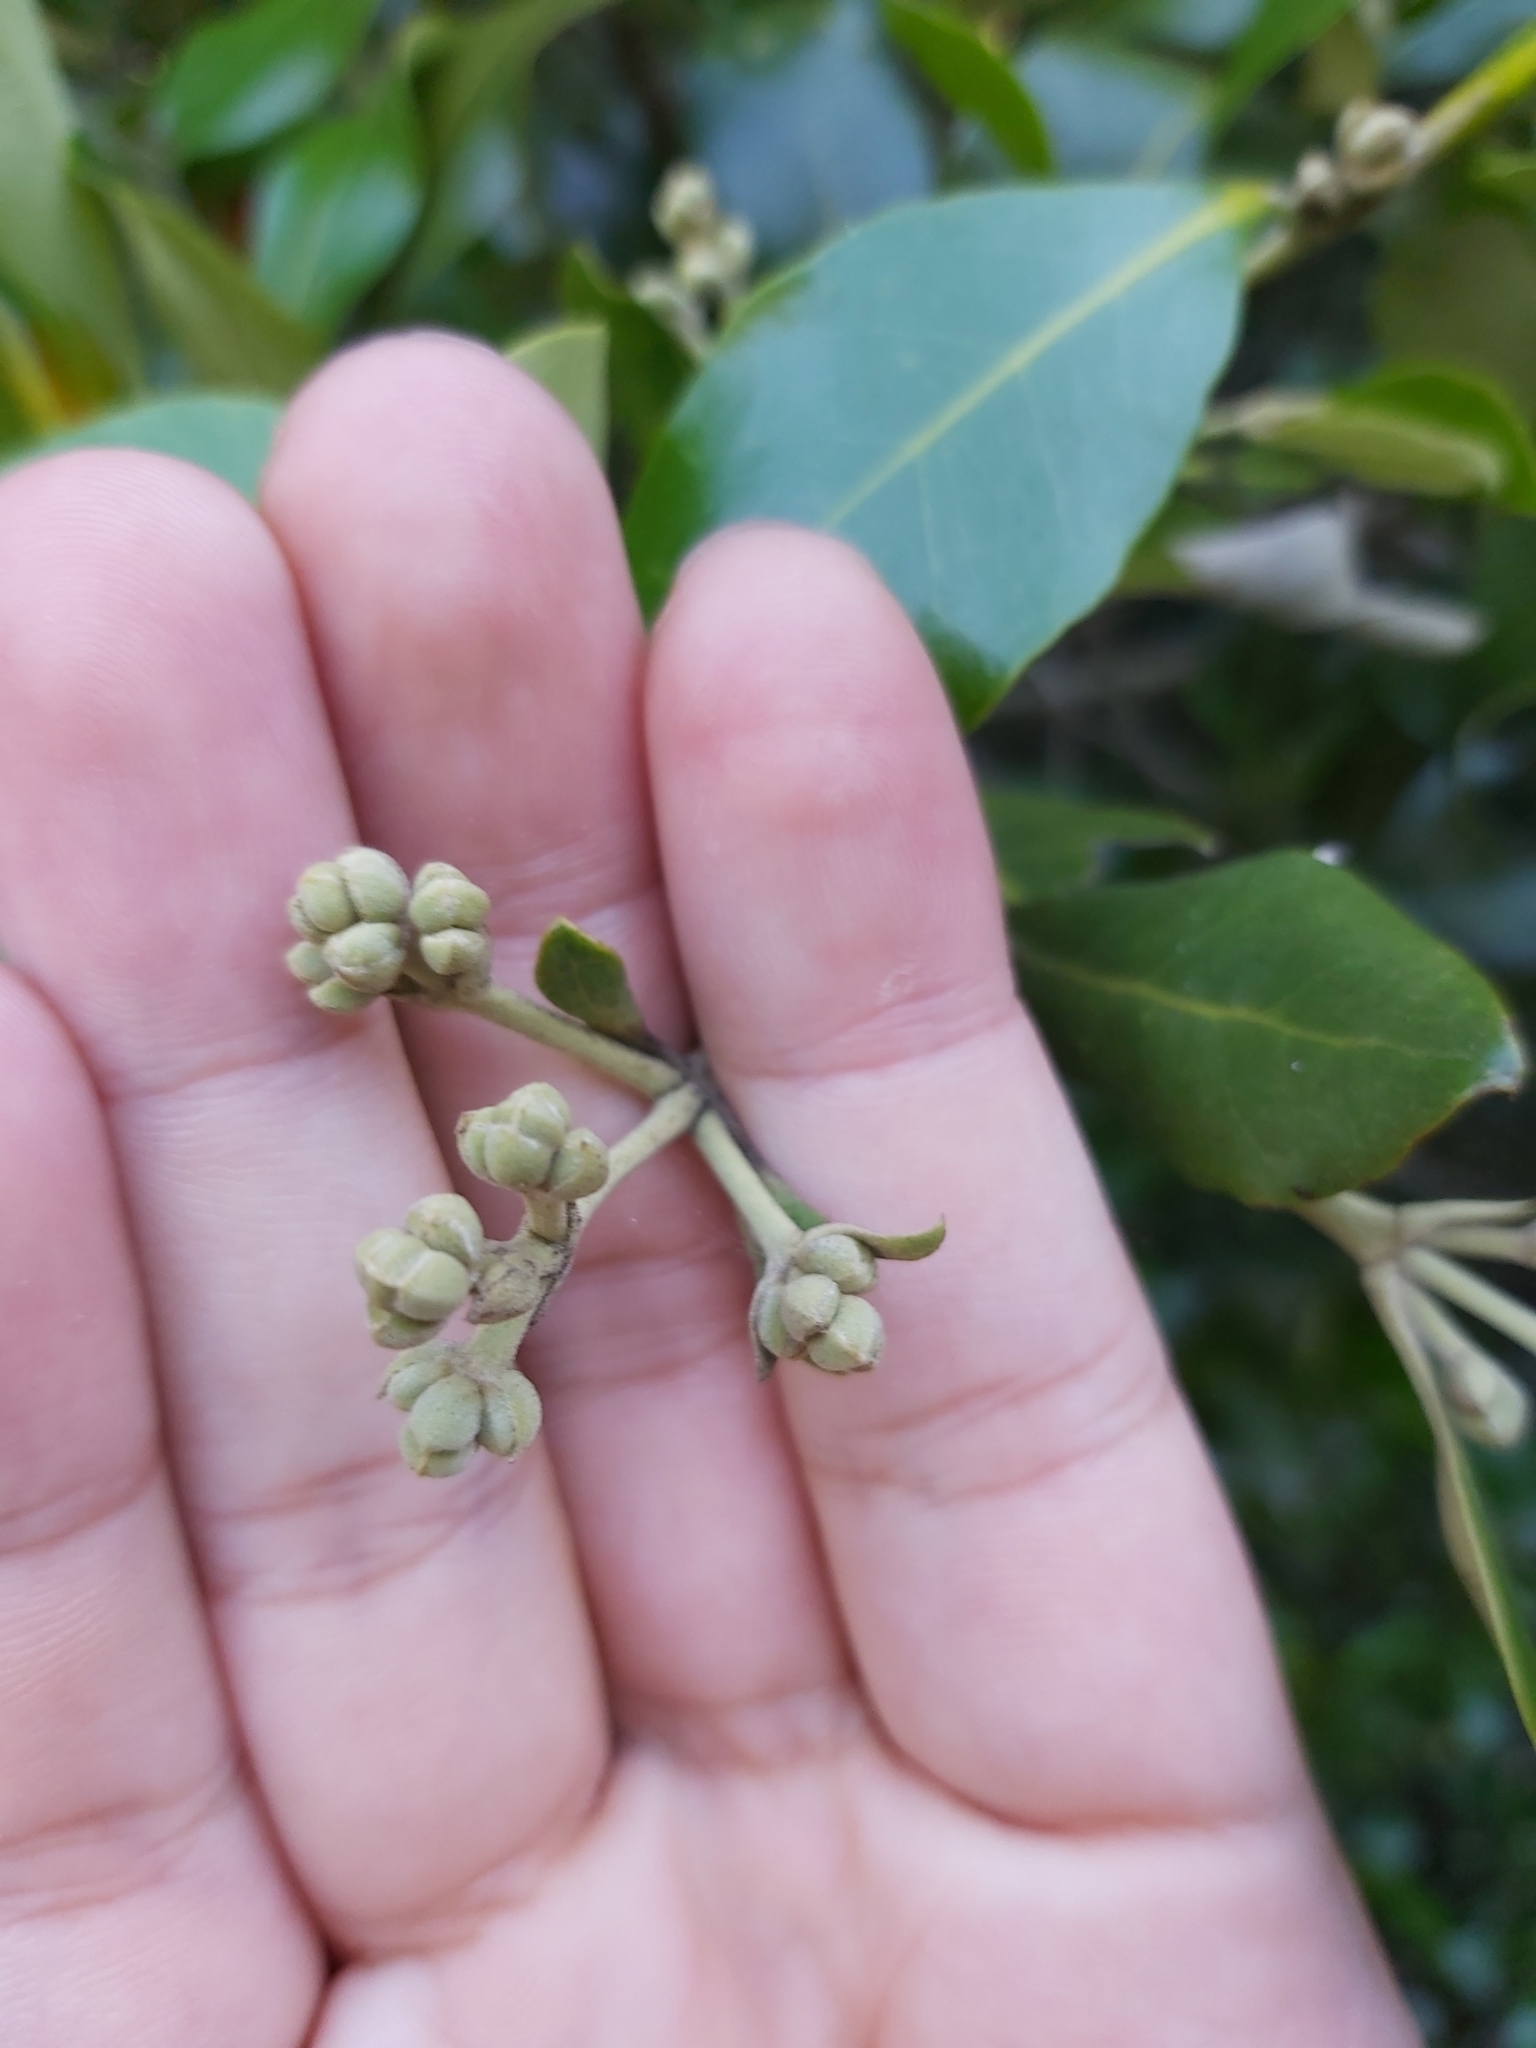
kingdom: Plantae
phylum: Tracheophyta
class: Magnoliopsida
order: Lamiales
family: Acanthaceae
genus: Avicennia
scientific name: Avicennia marina
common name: Gray mangrove
